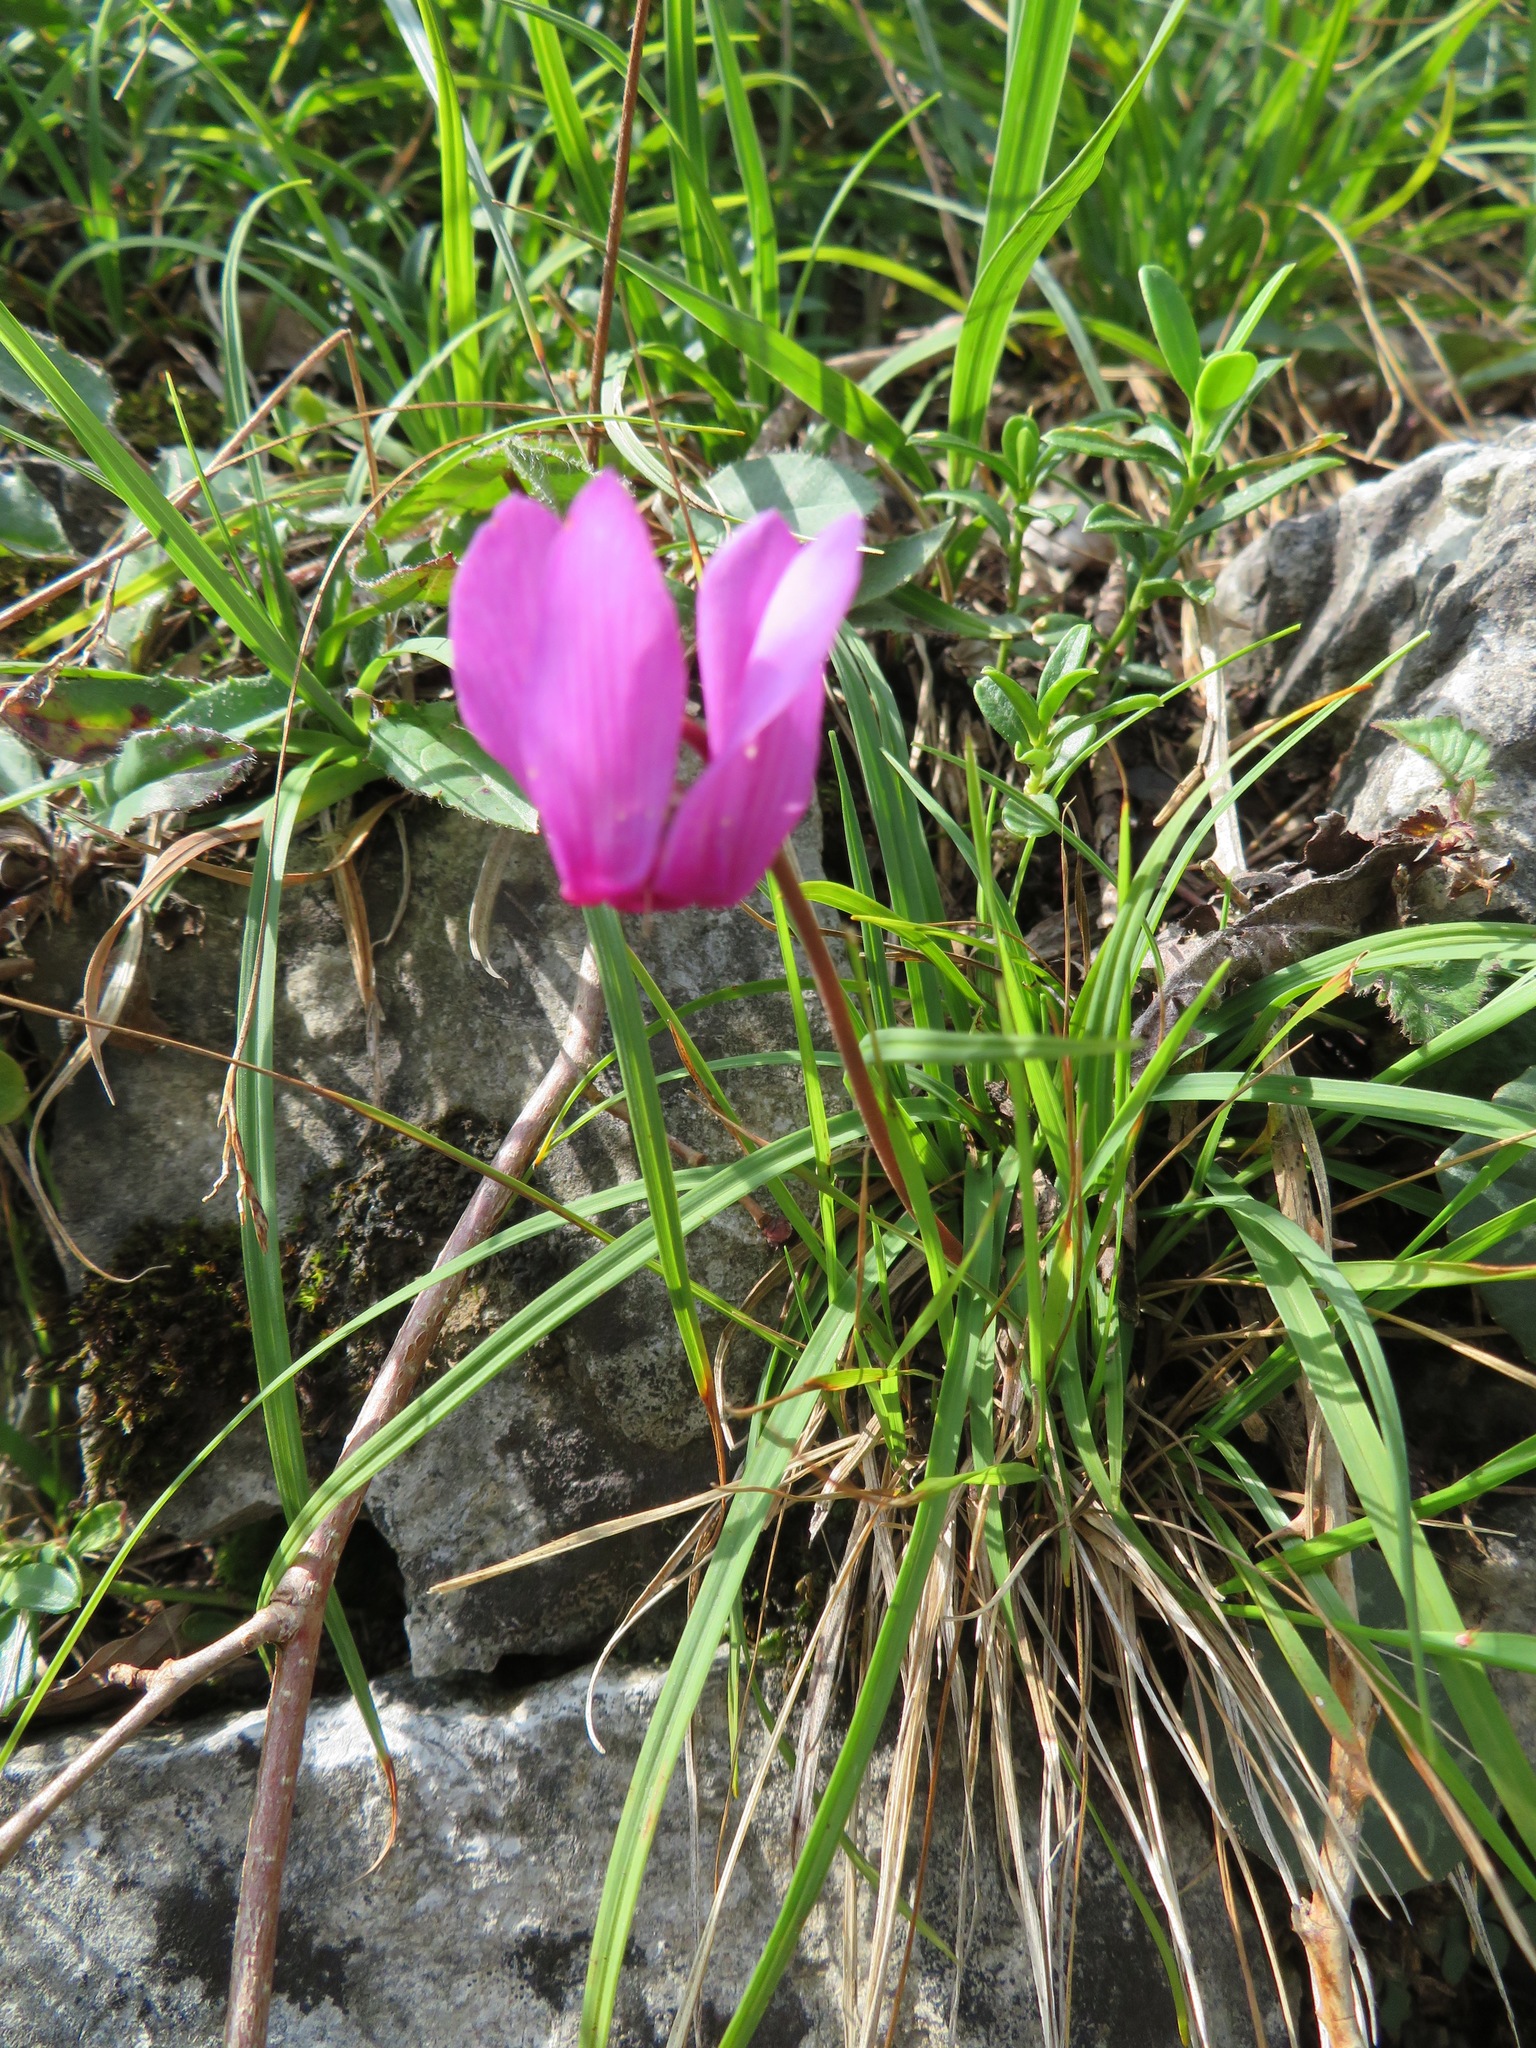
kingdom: Plantae
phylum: Tracheophyta
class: Magnoliopsida
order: Ericales
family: Primulaceae
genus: Cyclamen
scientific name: Cyclamen purpurascens
